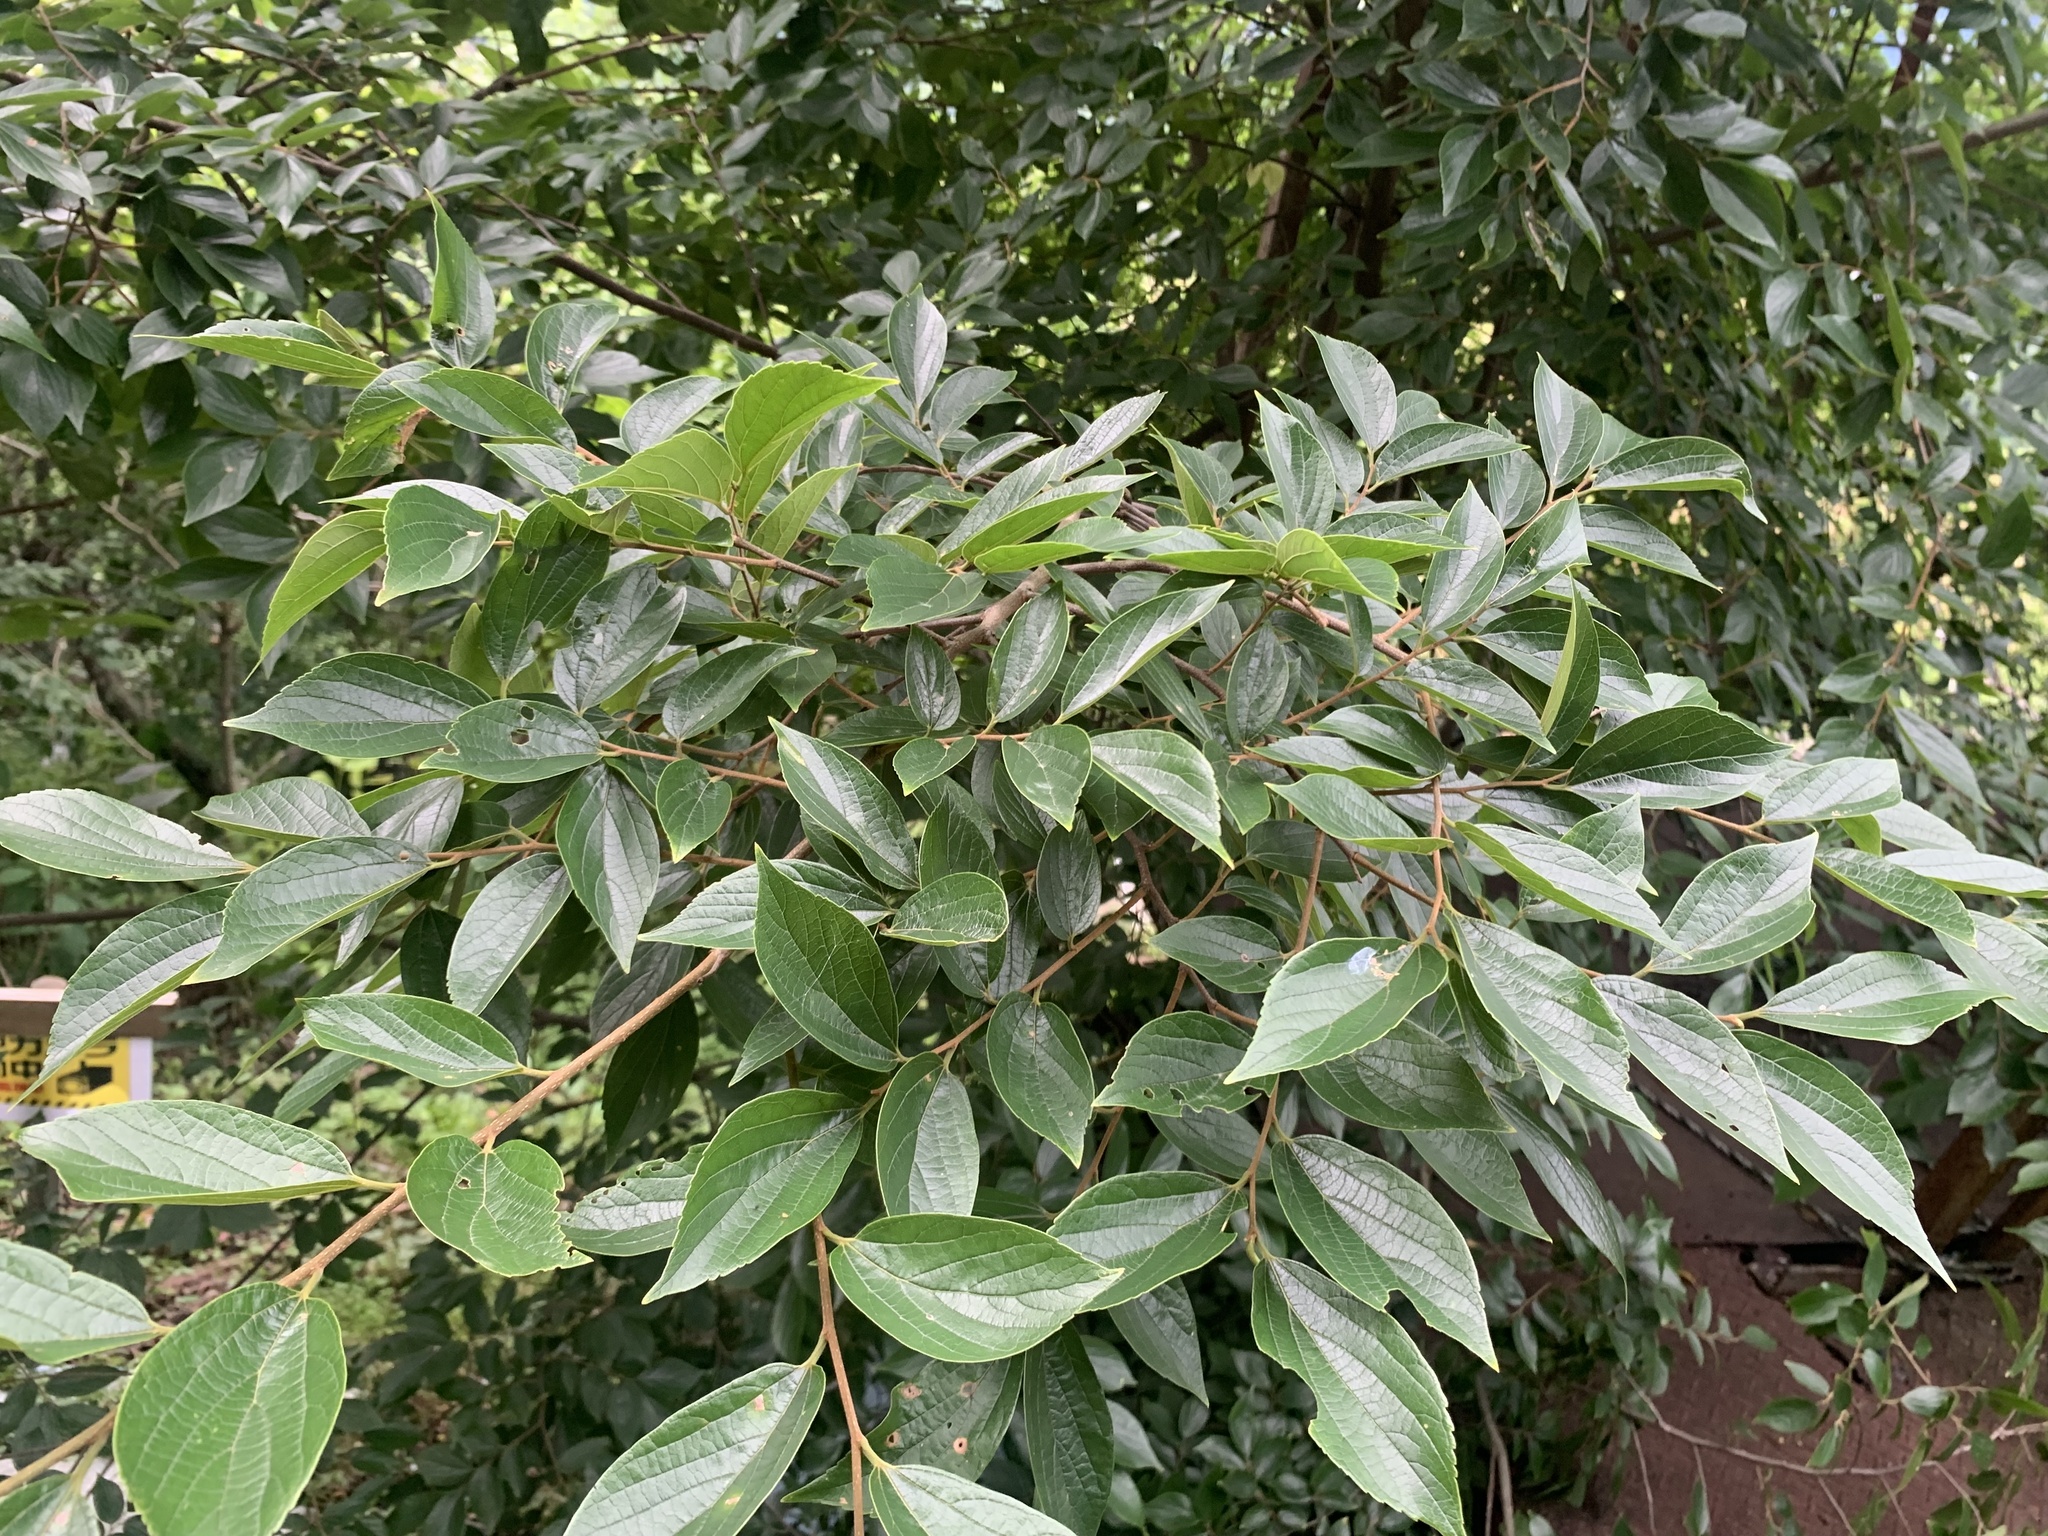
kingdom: Plantae
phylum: Tracheophyta
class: Magnoliopsida
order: Rosales
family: Cannabaceae
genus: Celtis
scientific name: Celtis sinensis
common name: Chinese hackberry
